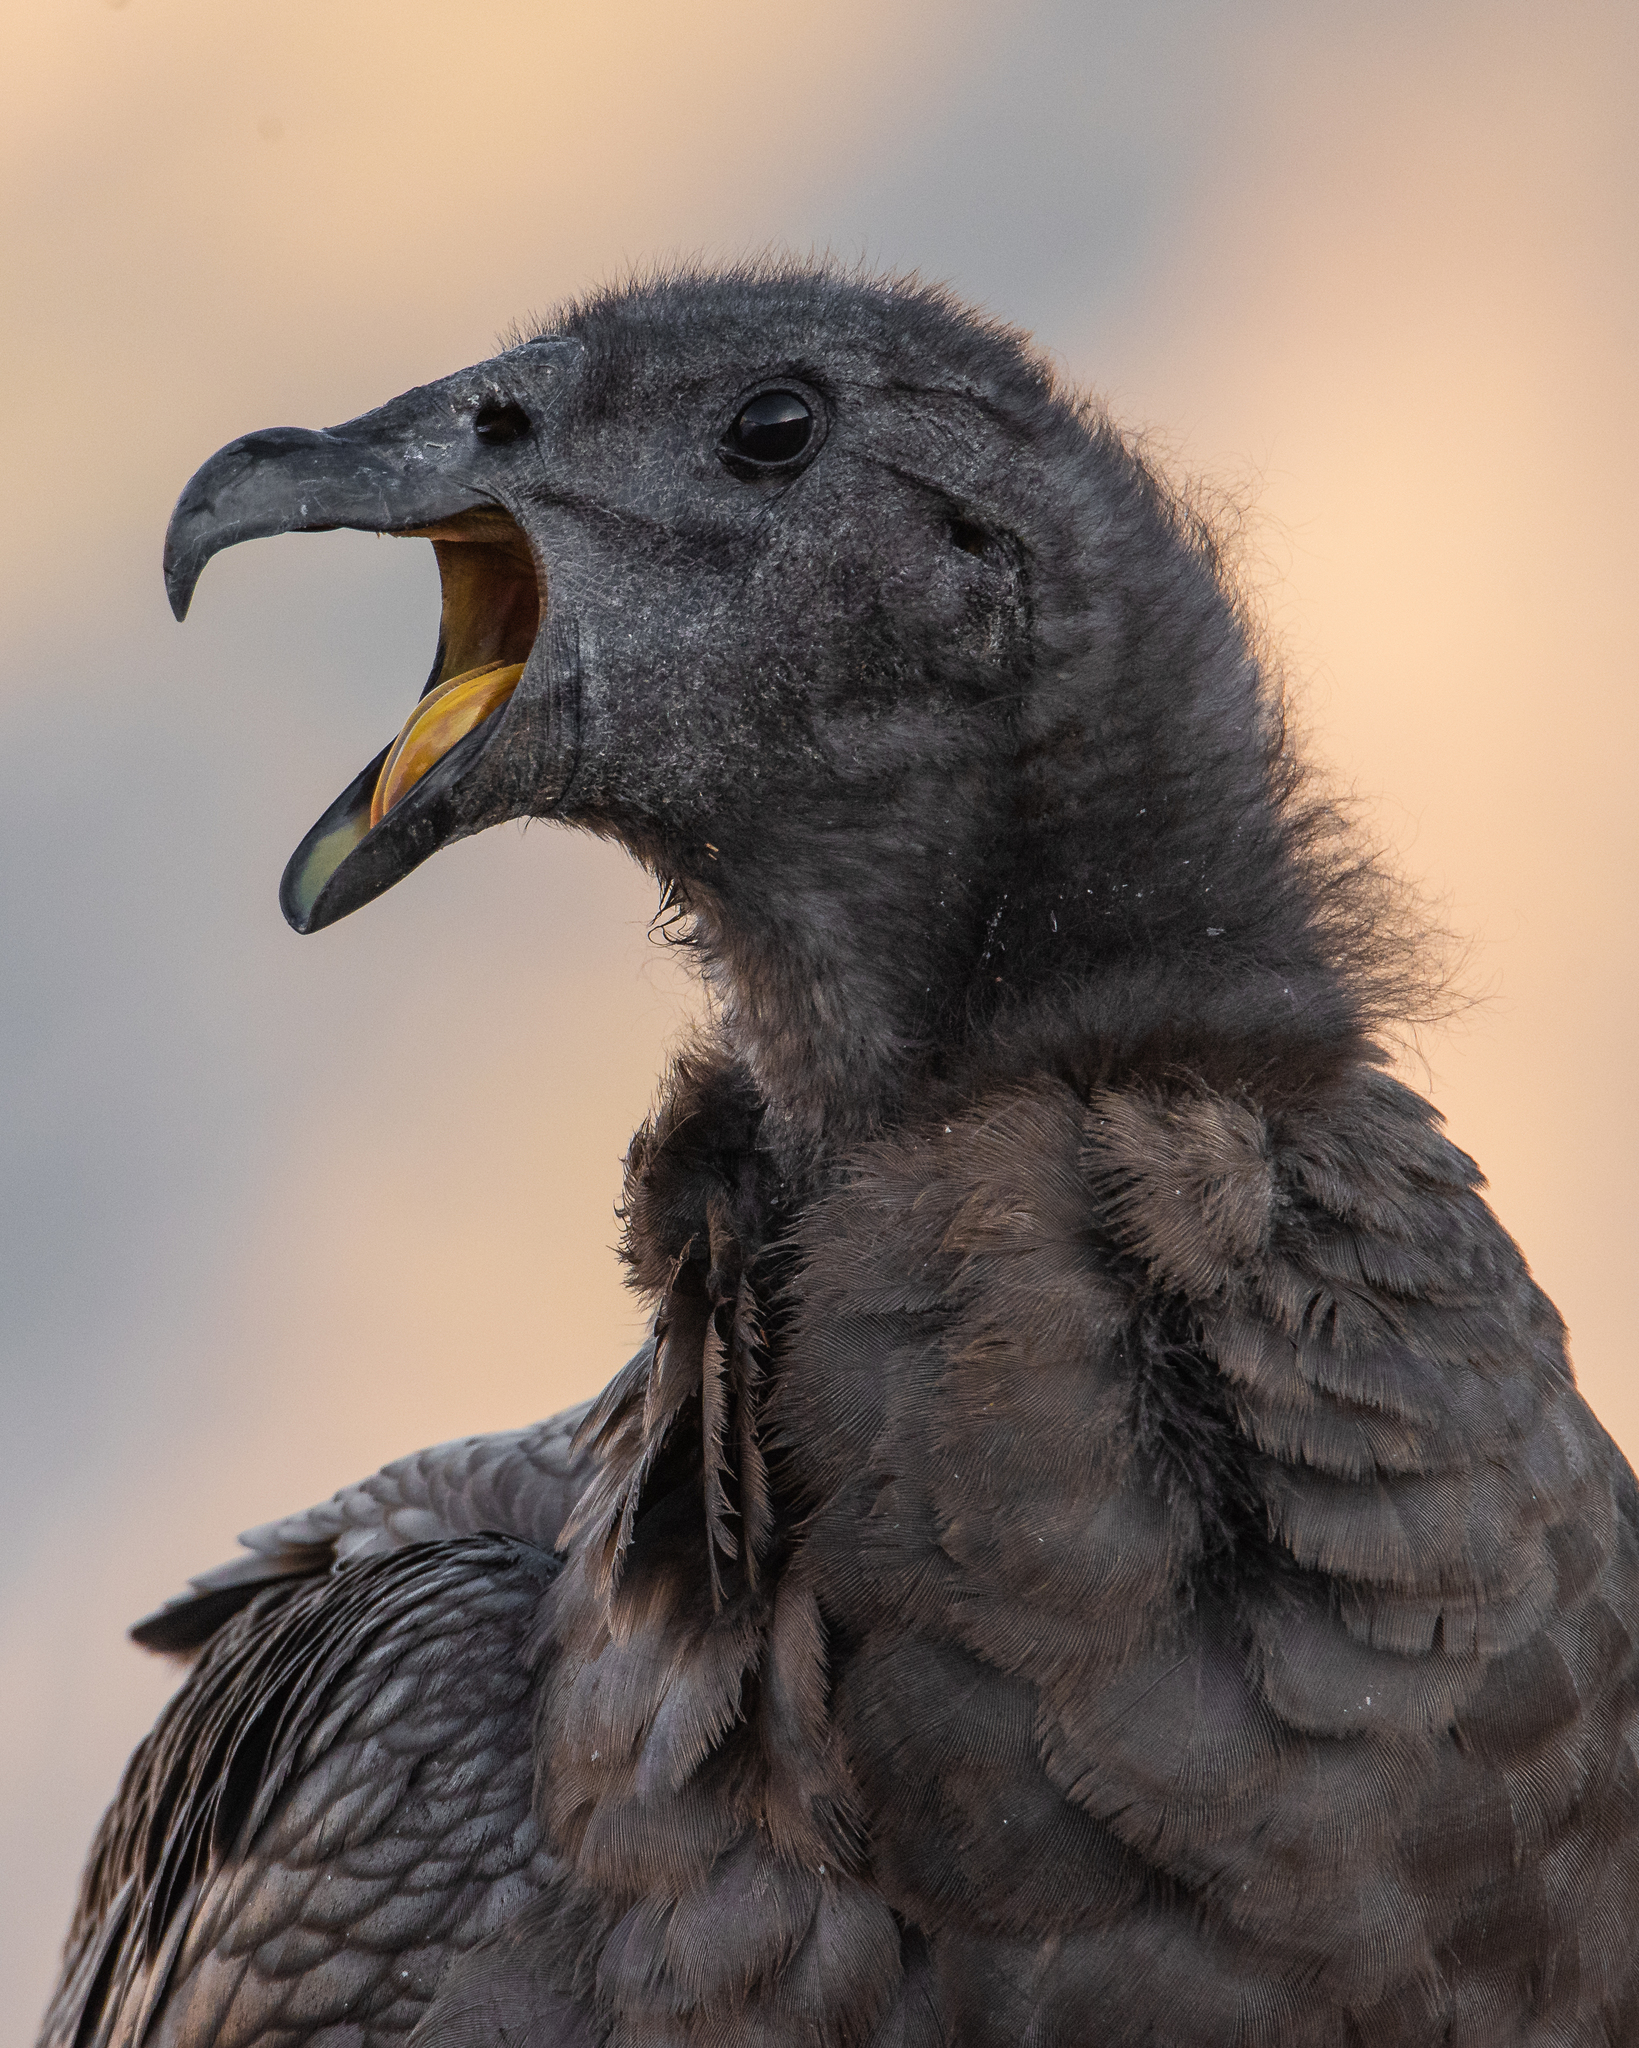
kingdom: Animalia
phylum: Chordata
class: Aves
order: Accipitriformes
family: Cathartidae
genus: Vultur
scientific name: Vultur gryphus
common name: Andean condor
